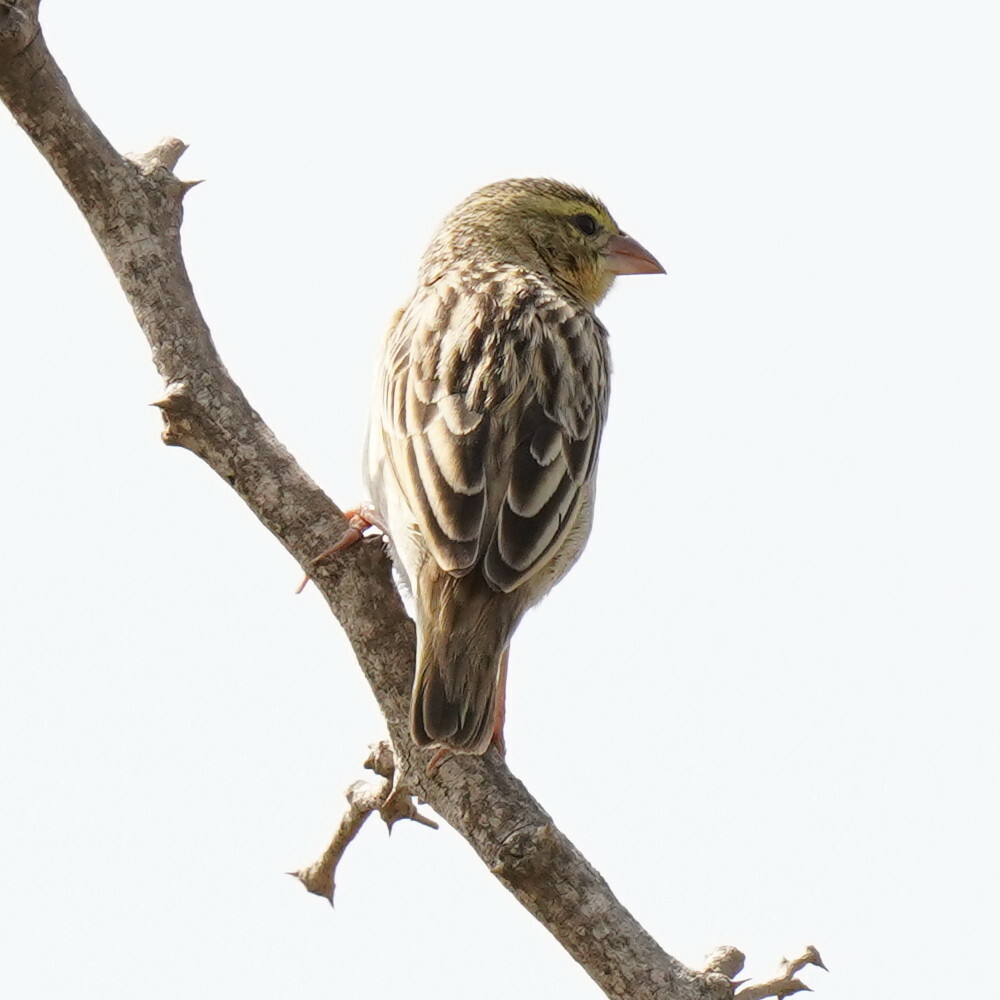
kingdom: Animalia
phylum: Chordata
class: Aves
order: Passeriformes
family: Ploceidae
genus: Euplectes
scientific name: Euplectes franciscanus
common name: Northern red bishop
